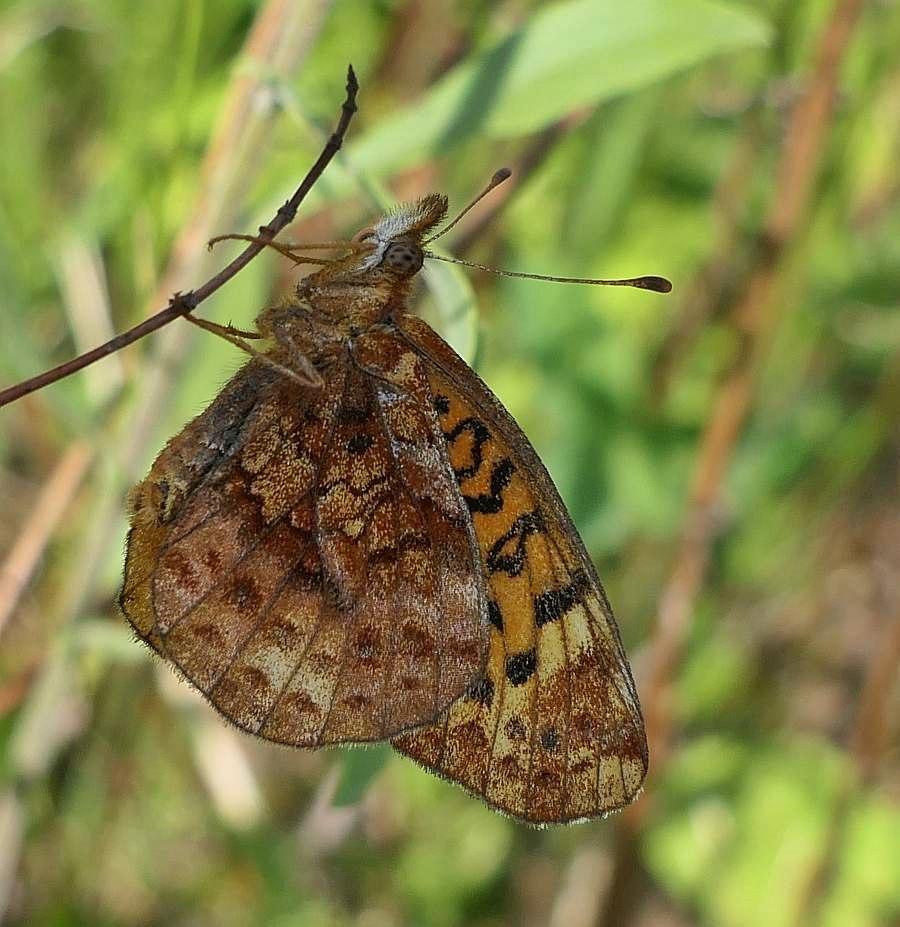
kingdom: Animalia
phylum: Arthropoda
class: Insecta
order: Lepidoptera
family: Nymphalidae
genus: Clossiana
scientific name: Clossiana toddi
